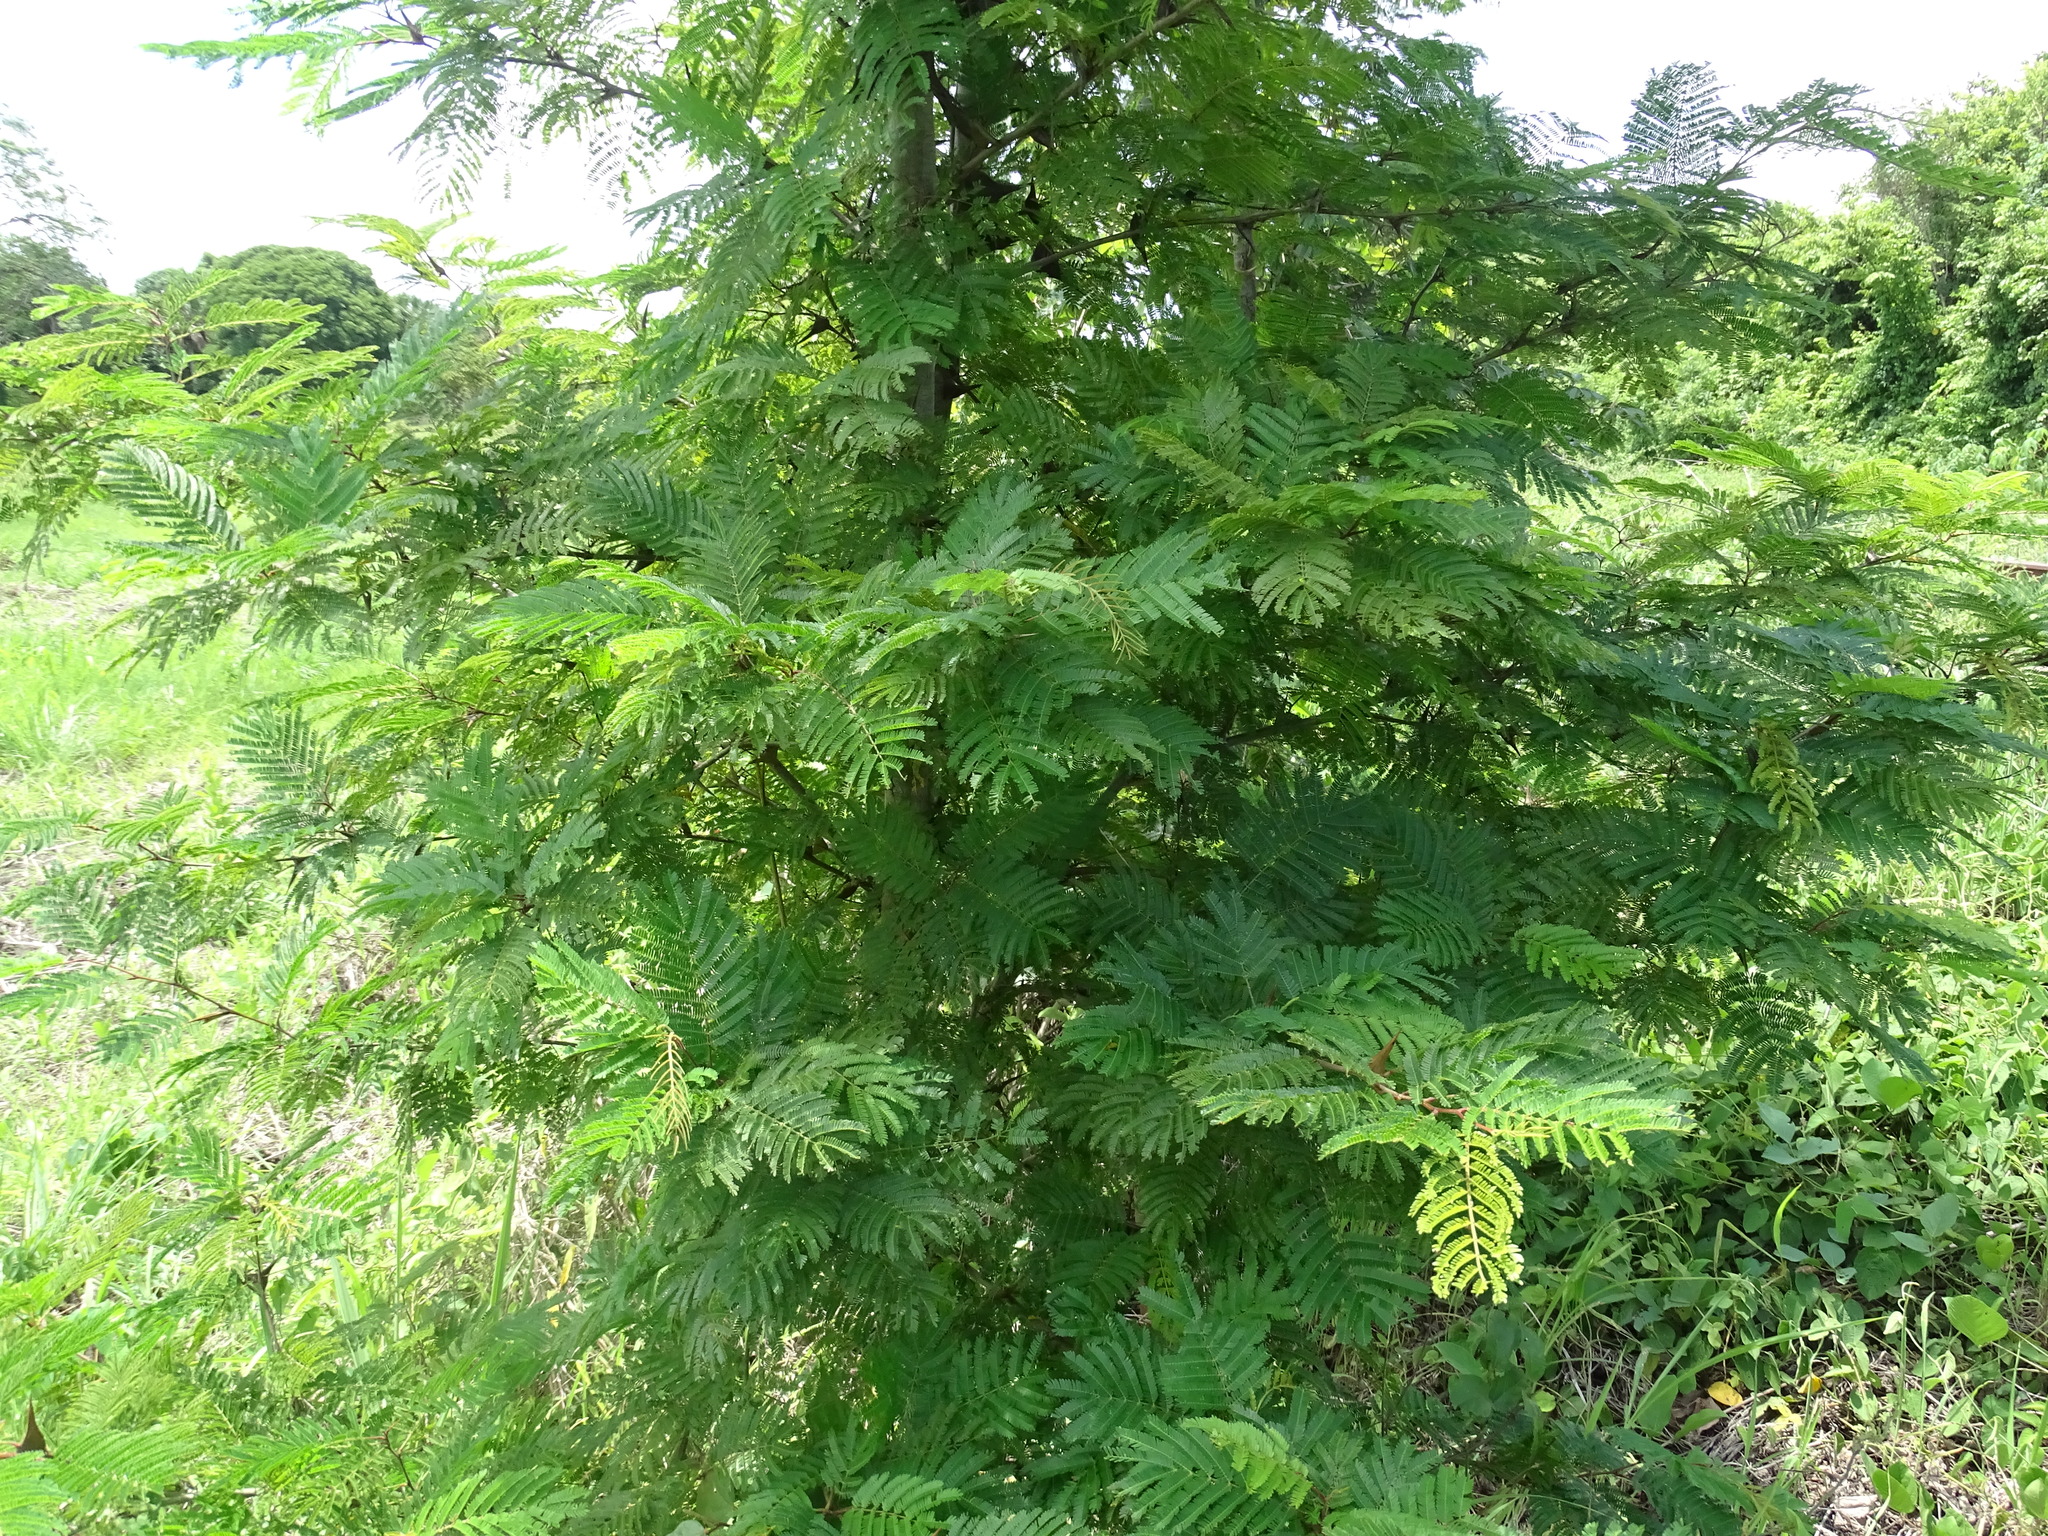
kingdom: Plantae
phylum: Tracheophyta
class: Magnoliopsida
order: Fabales
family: Fabaceae
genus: Vachellia
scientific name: Vachellia hindsii
